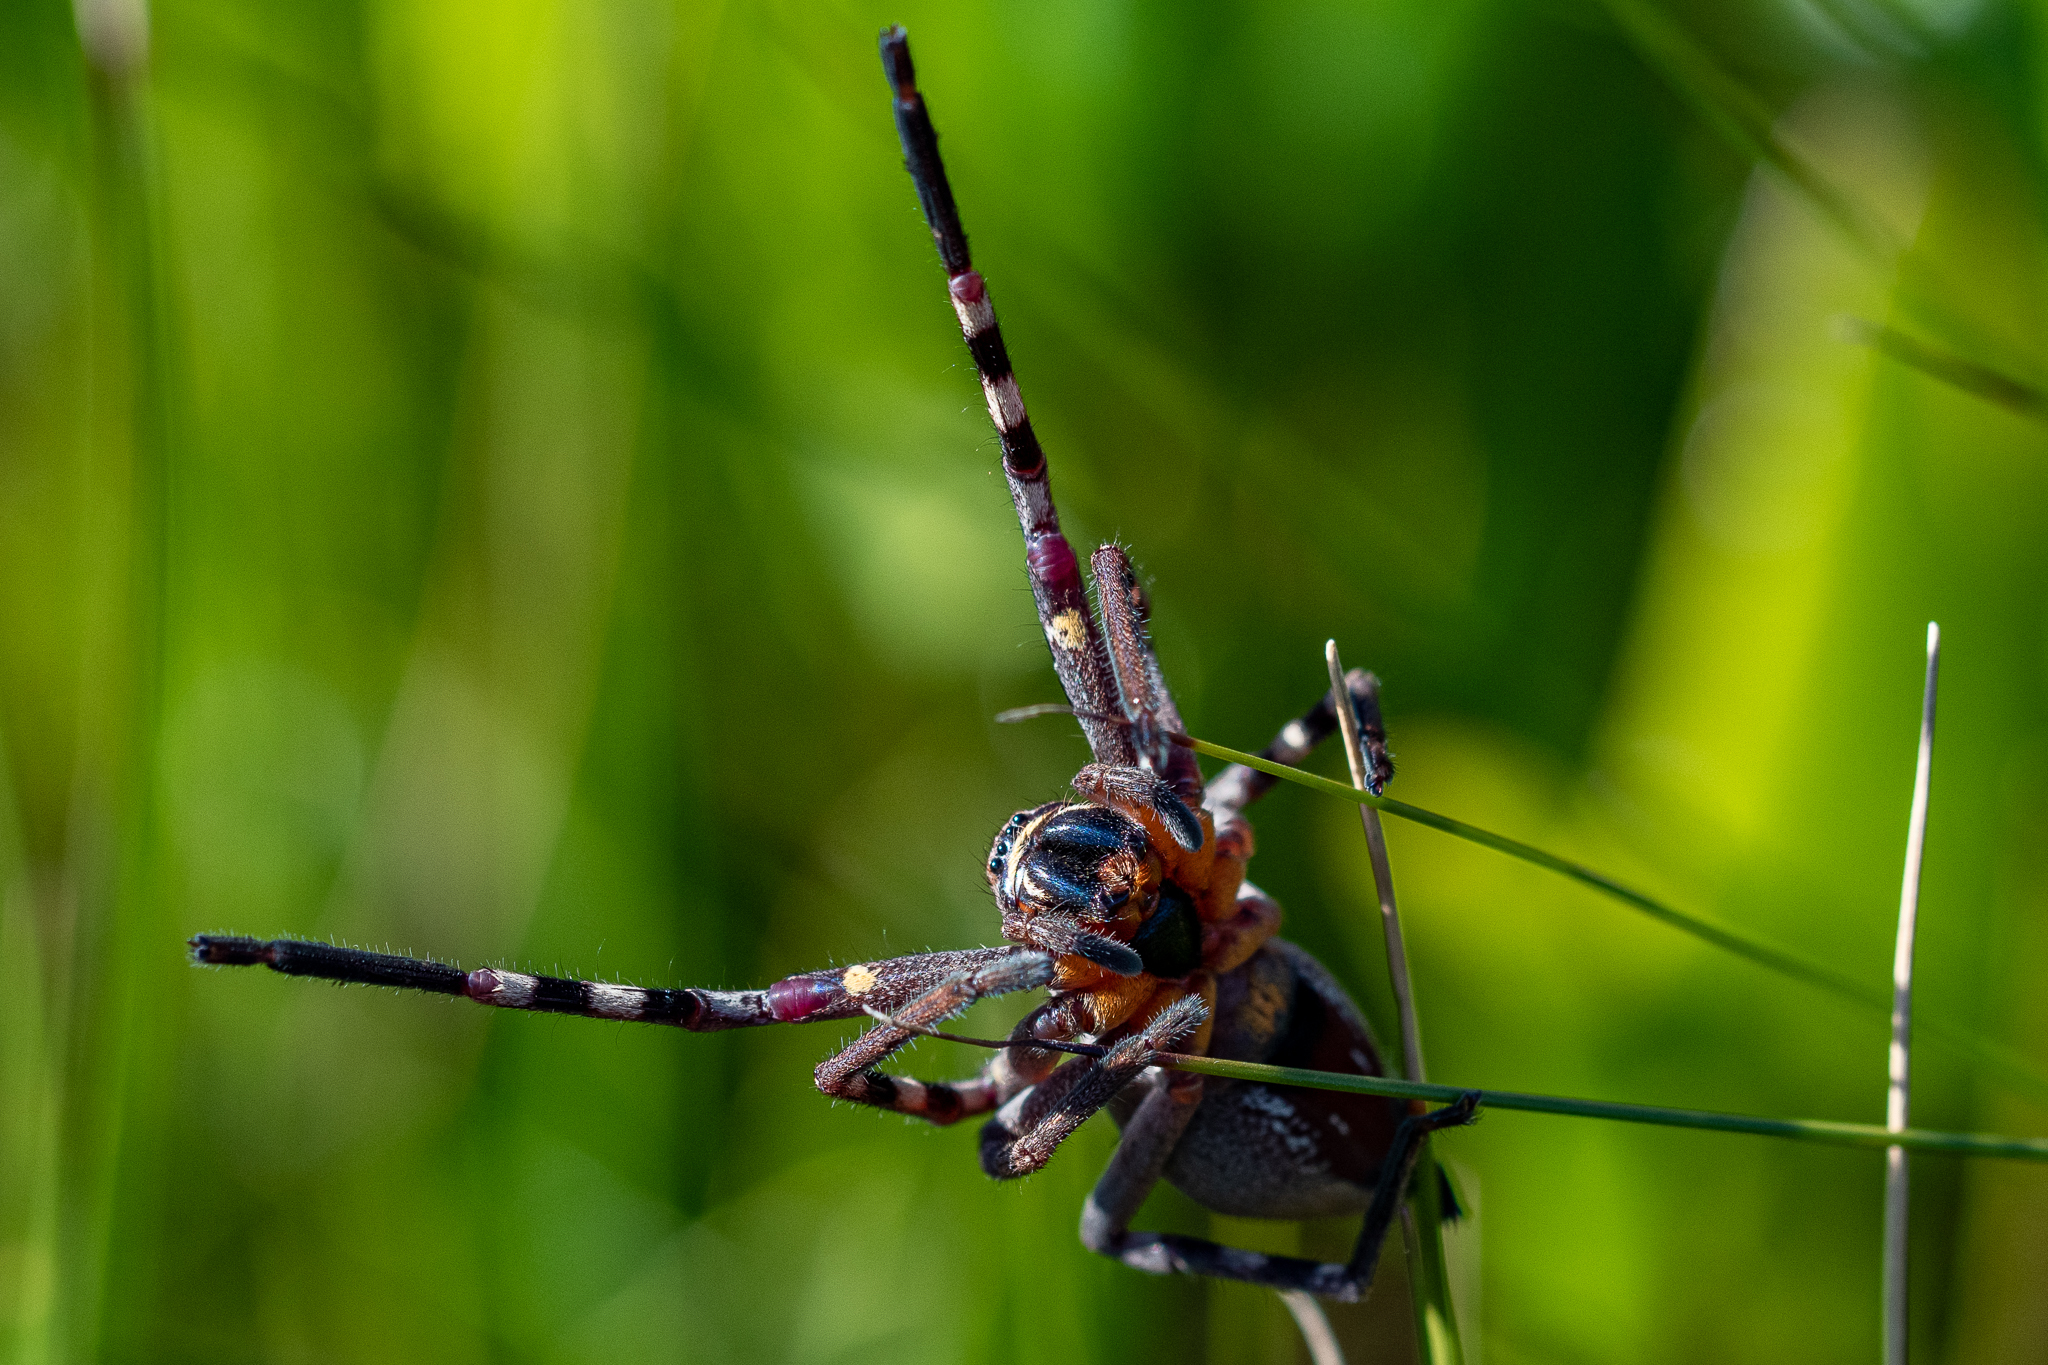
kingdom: Animalia
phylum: Arthropoda
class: Arachnida
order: Araneae
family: Sparassidae
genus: Palystes
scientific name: Palystes castaneus
